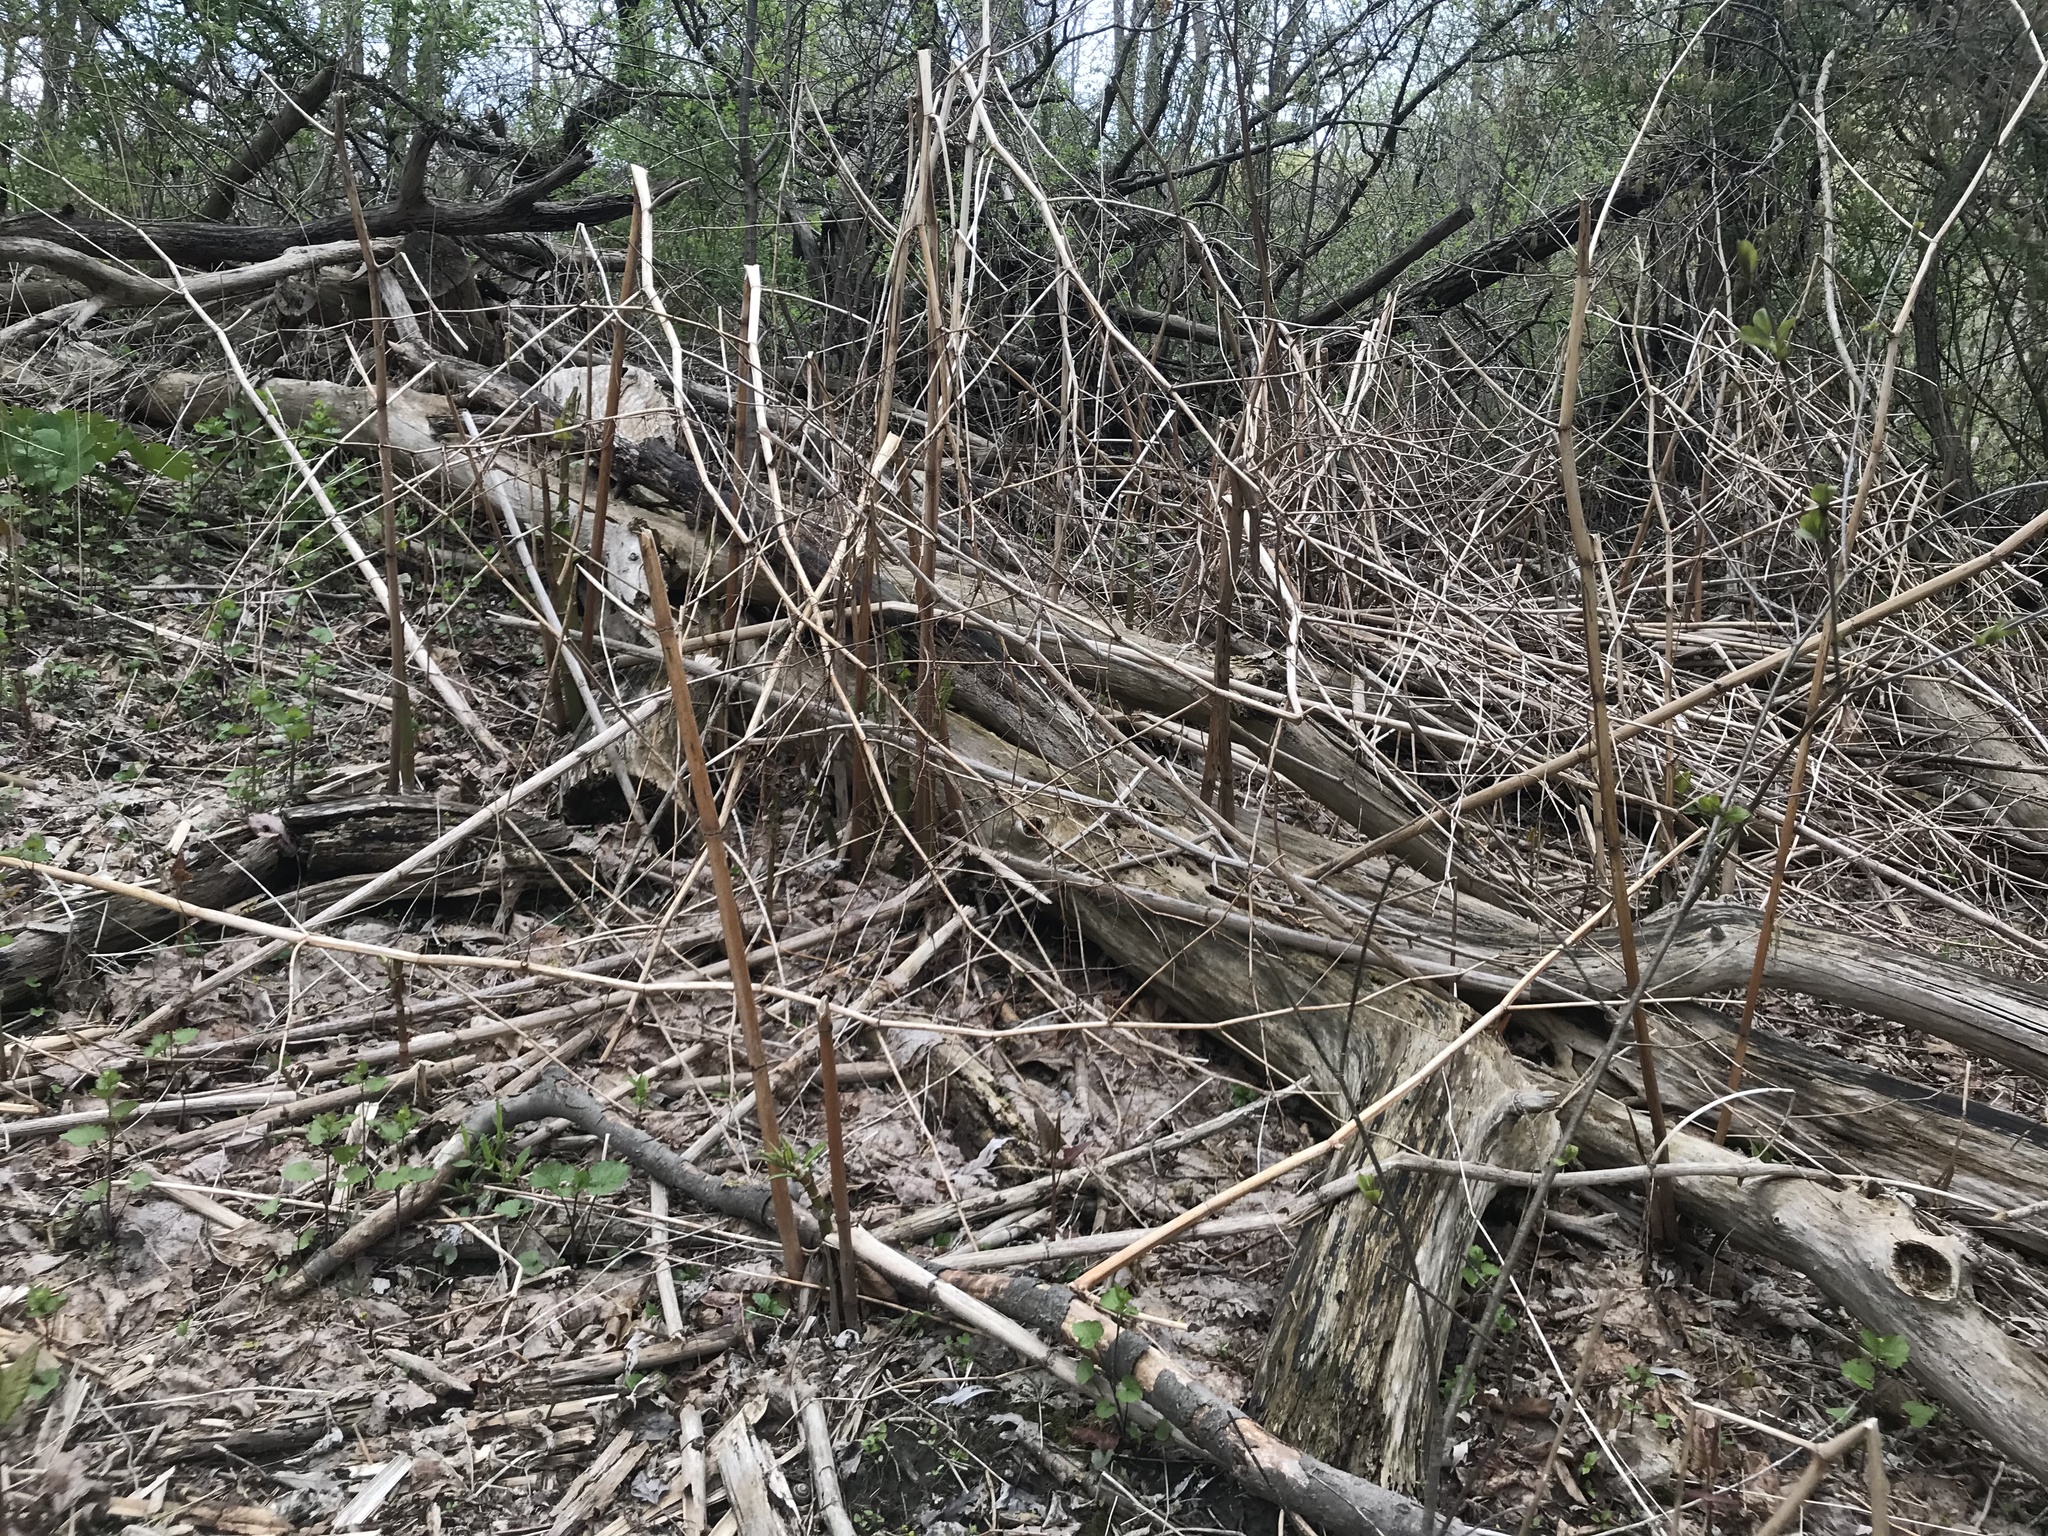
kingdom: Plantae
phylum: Tracheophyta
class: Magnoliopsida
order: Caryophyllales
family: Polygonaceae
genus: Reynoutria
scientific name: Reynoutria japonica
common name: Japanese knotweed
